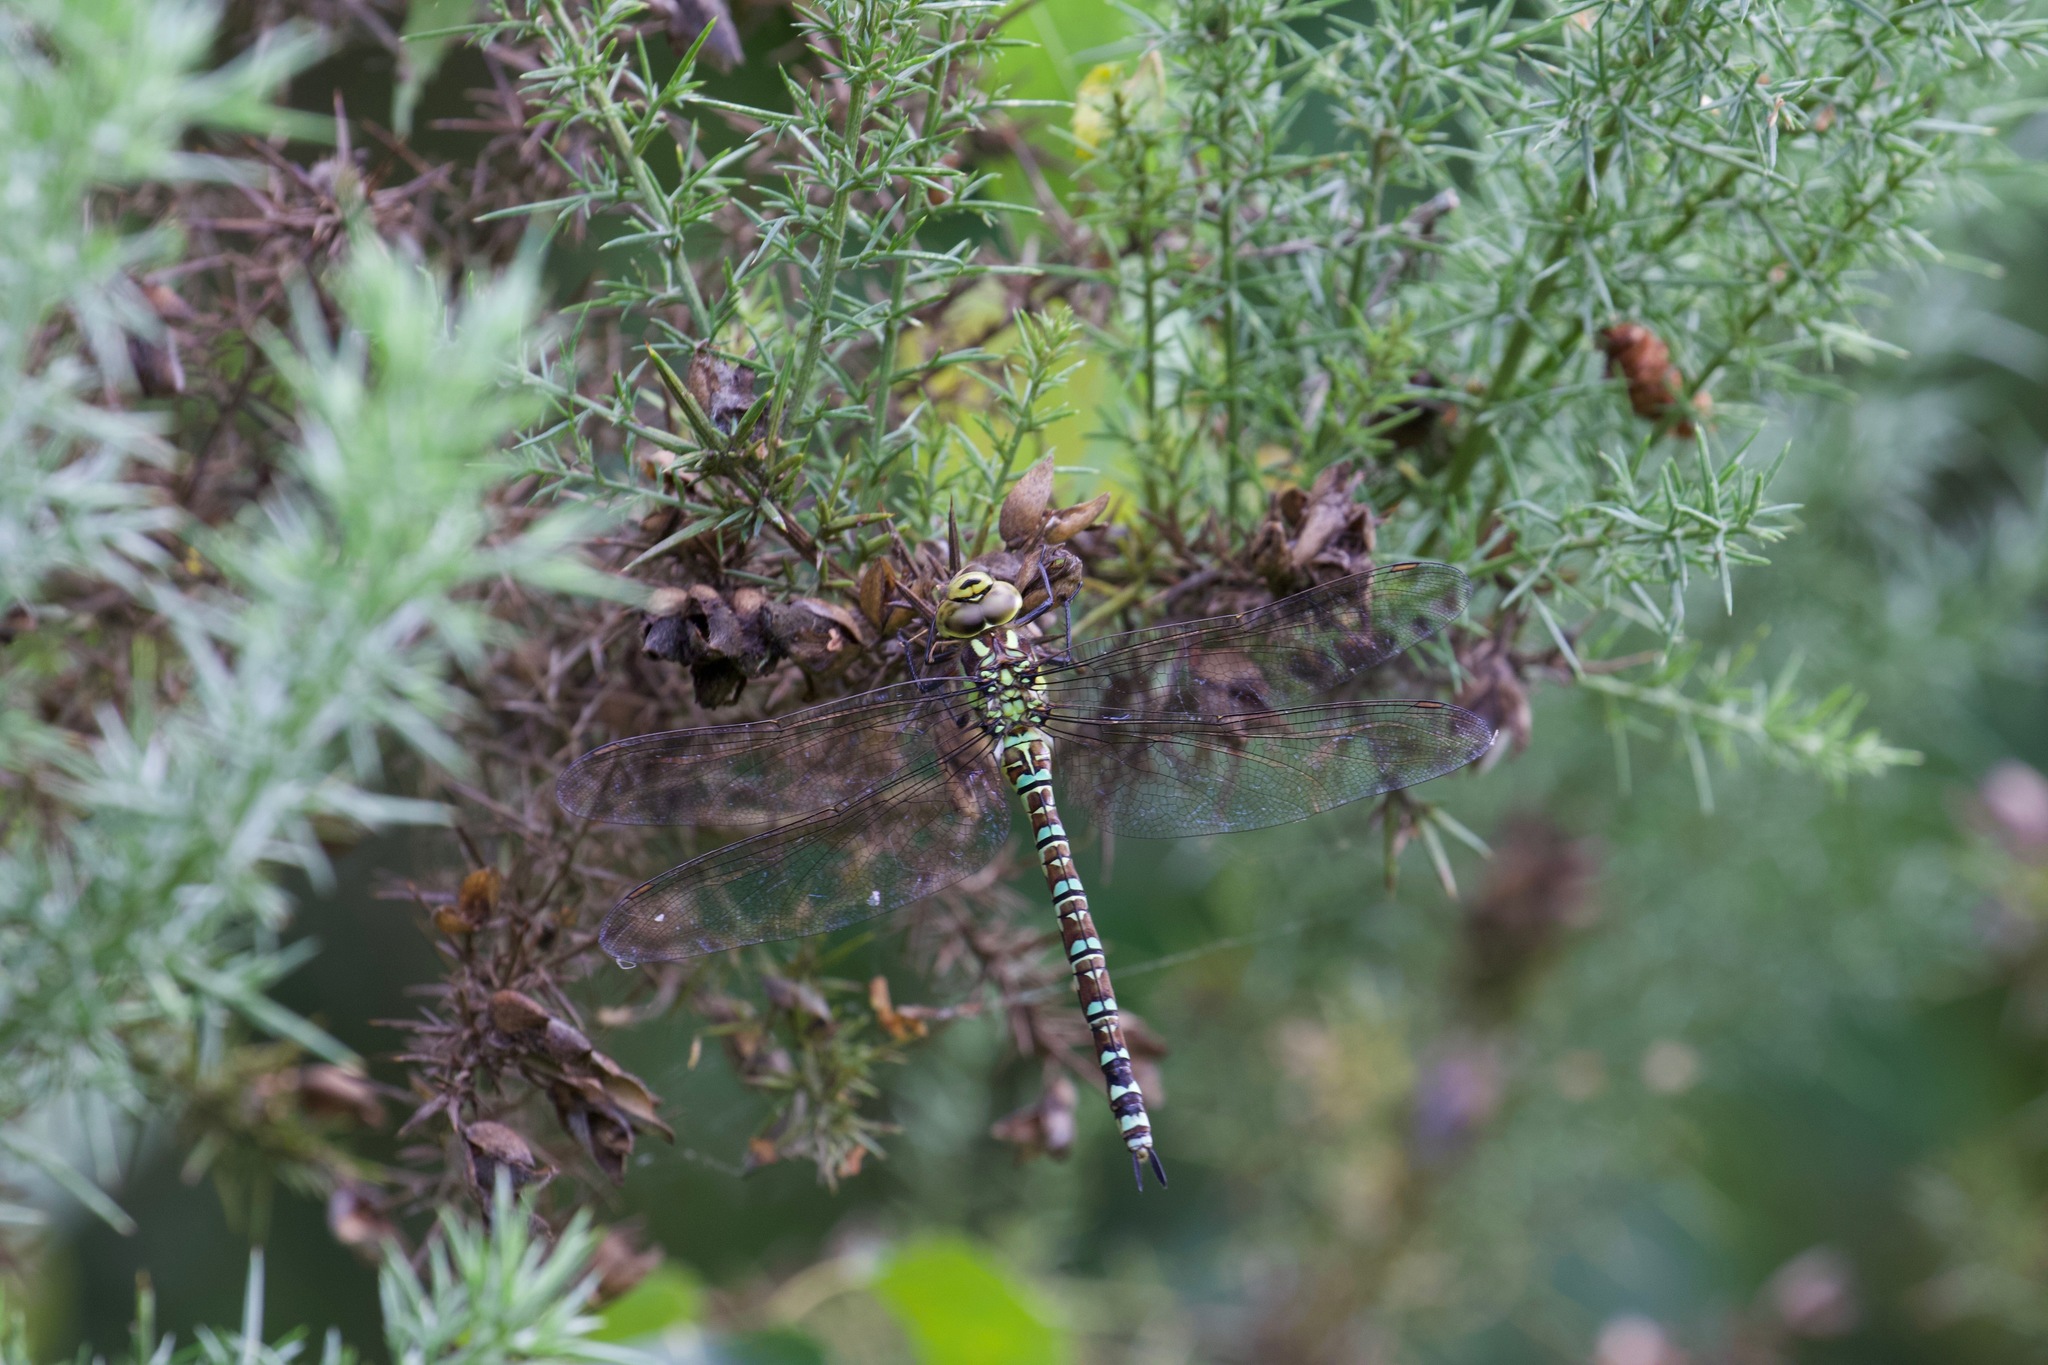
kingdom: Animalia
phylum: Arthropoda
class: Insecta
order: Odonata
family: Aeshnidae
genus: Aeshna
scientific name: Aeshna cyanea
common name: Southern hawker
